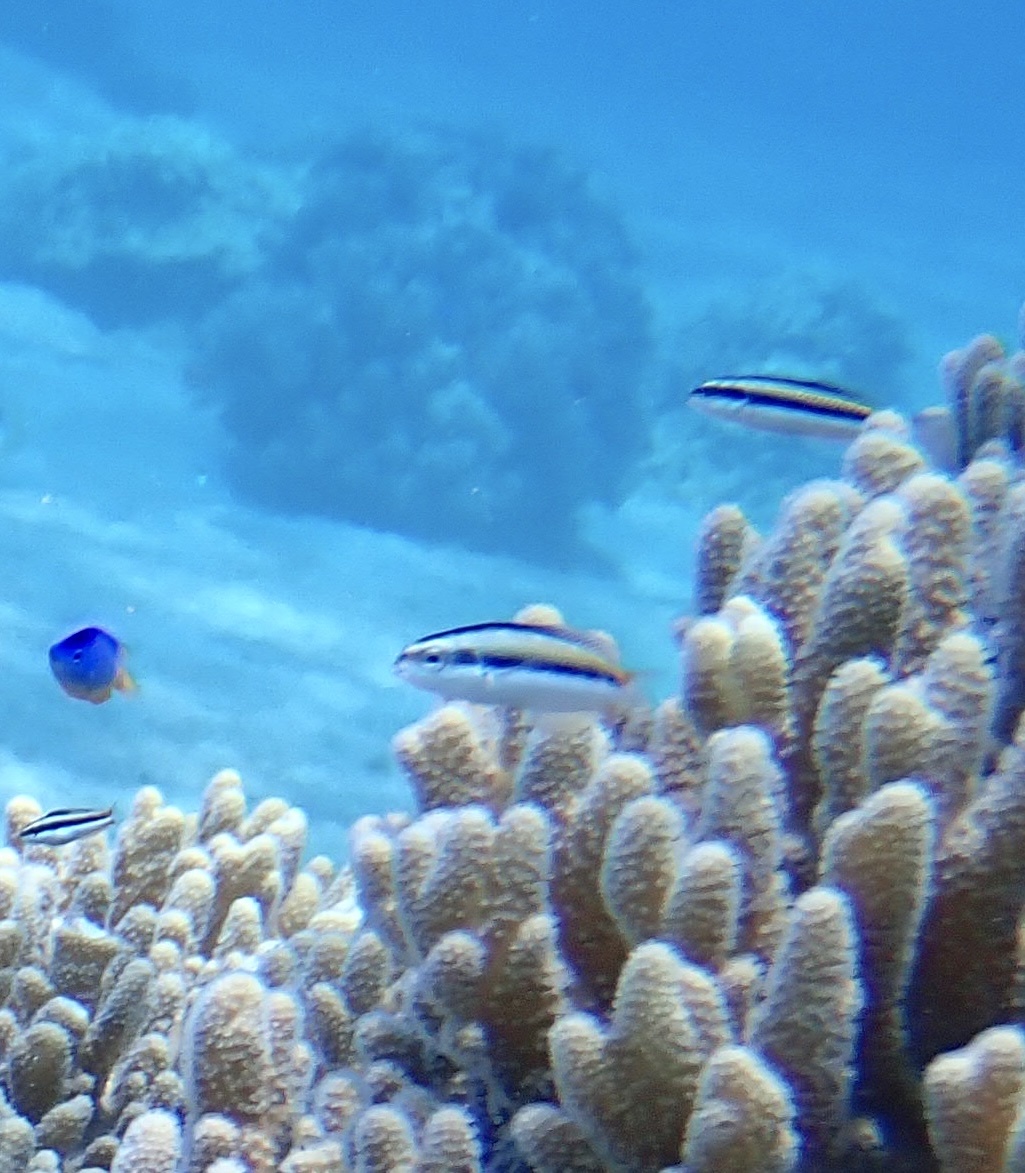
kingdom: Animalia
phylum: Chordata
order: Perciformes
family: Labridae
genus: Thalassoma
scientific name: Thalassoma amblycephalum
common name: Bluehead wrasse
